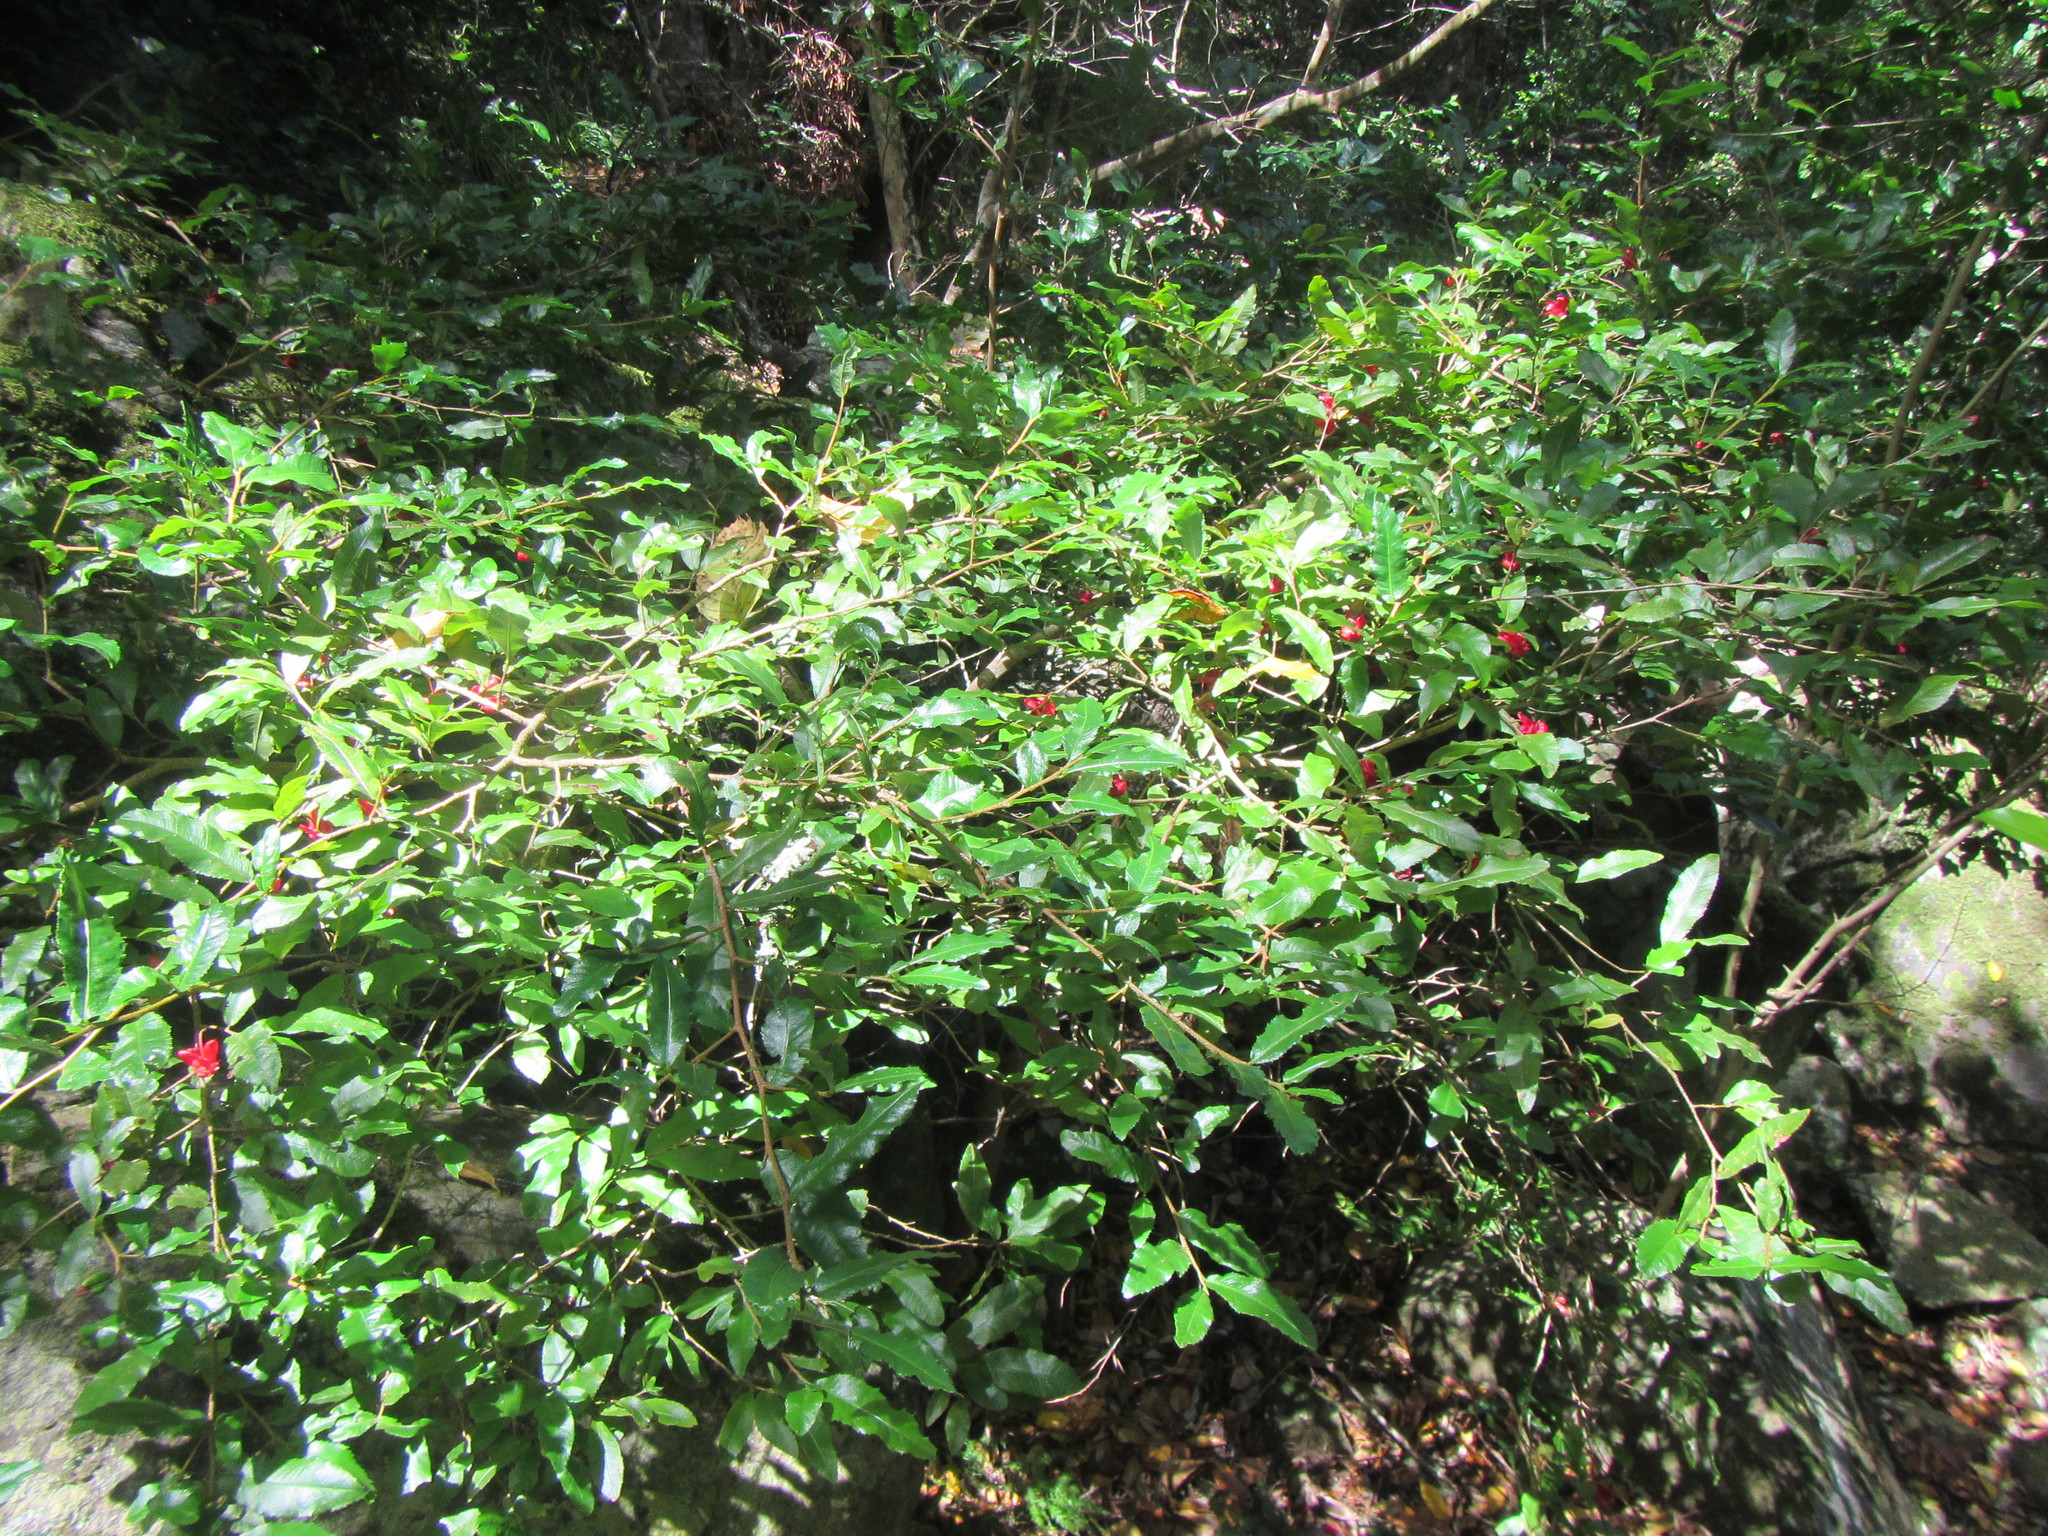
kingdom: Plantae
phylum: Tracheophyta
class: Magnoliopsida
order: Malpighiales
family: Ochnaceae
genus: Ochna
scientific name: Ochna serrulata
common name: Mickey mouse plant
